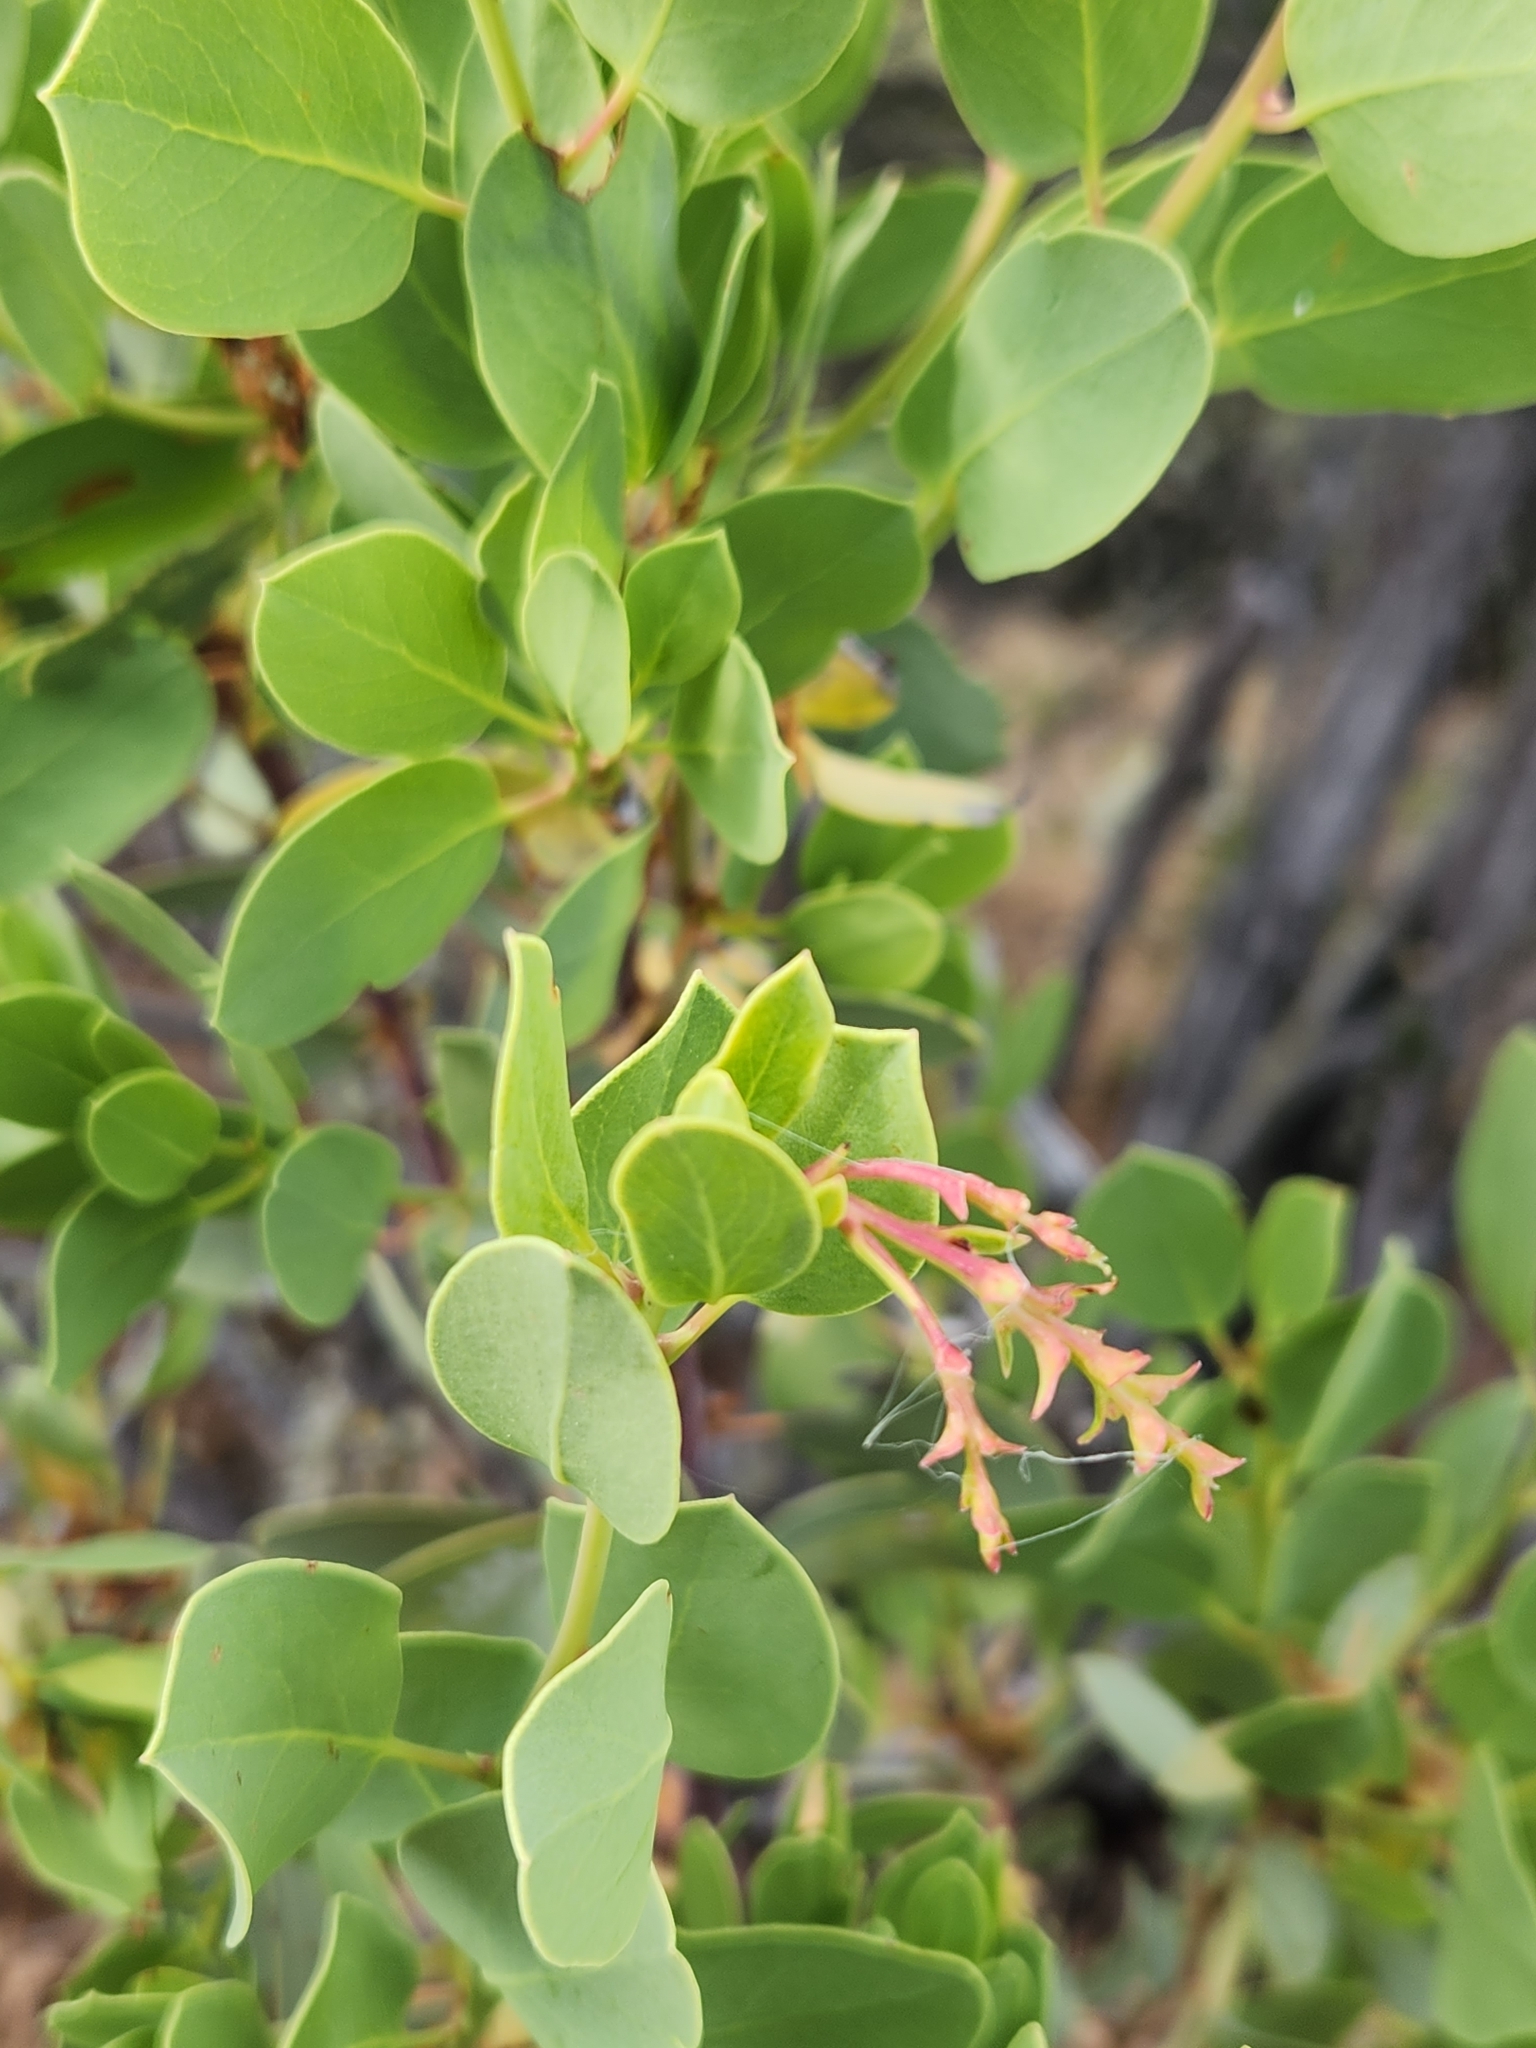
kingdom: Plantae
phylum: Tracheophyta
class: Magnoliopsida
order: Ericales
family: Ericaceae
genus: Arctostaphylos
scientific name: Arctostaphylos glauca
